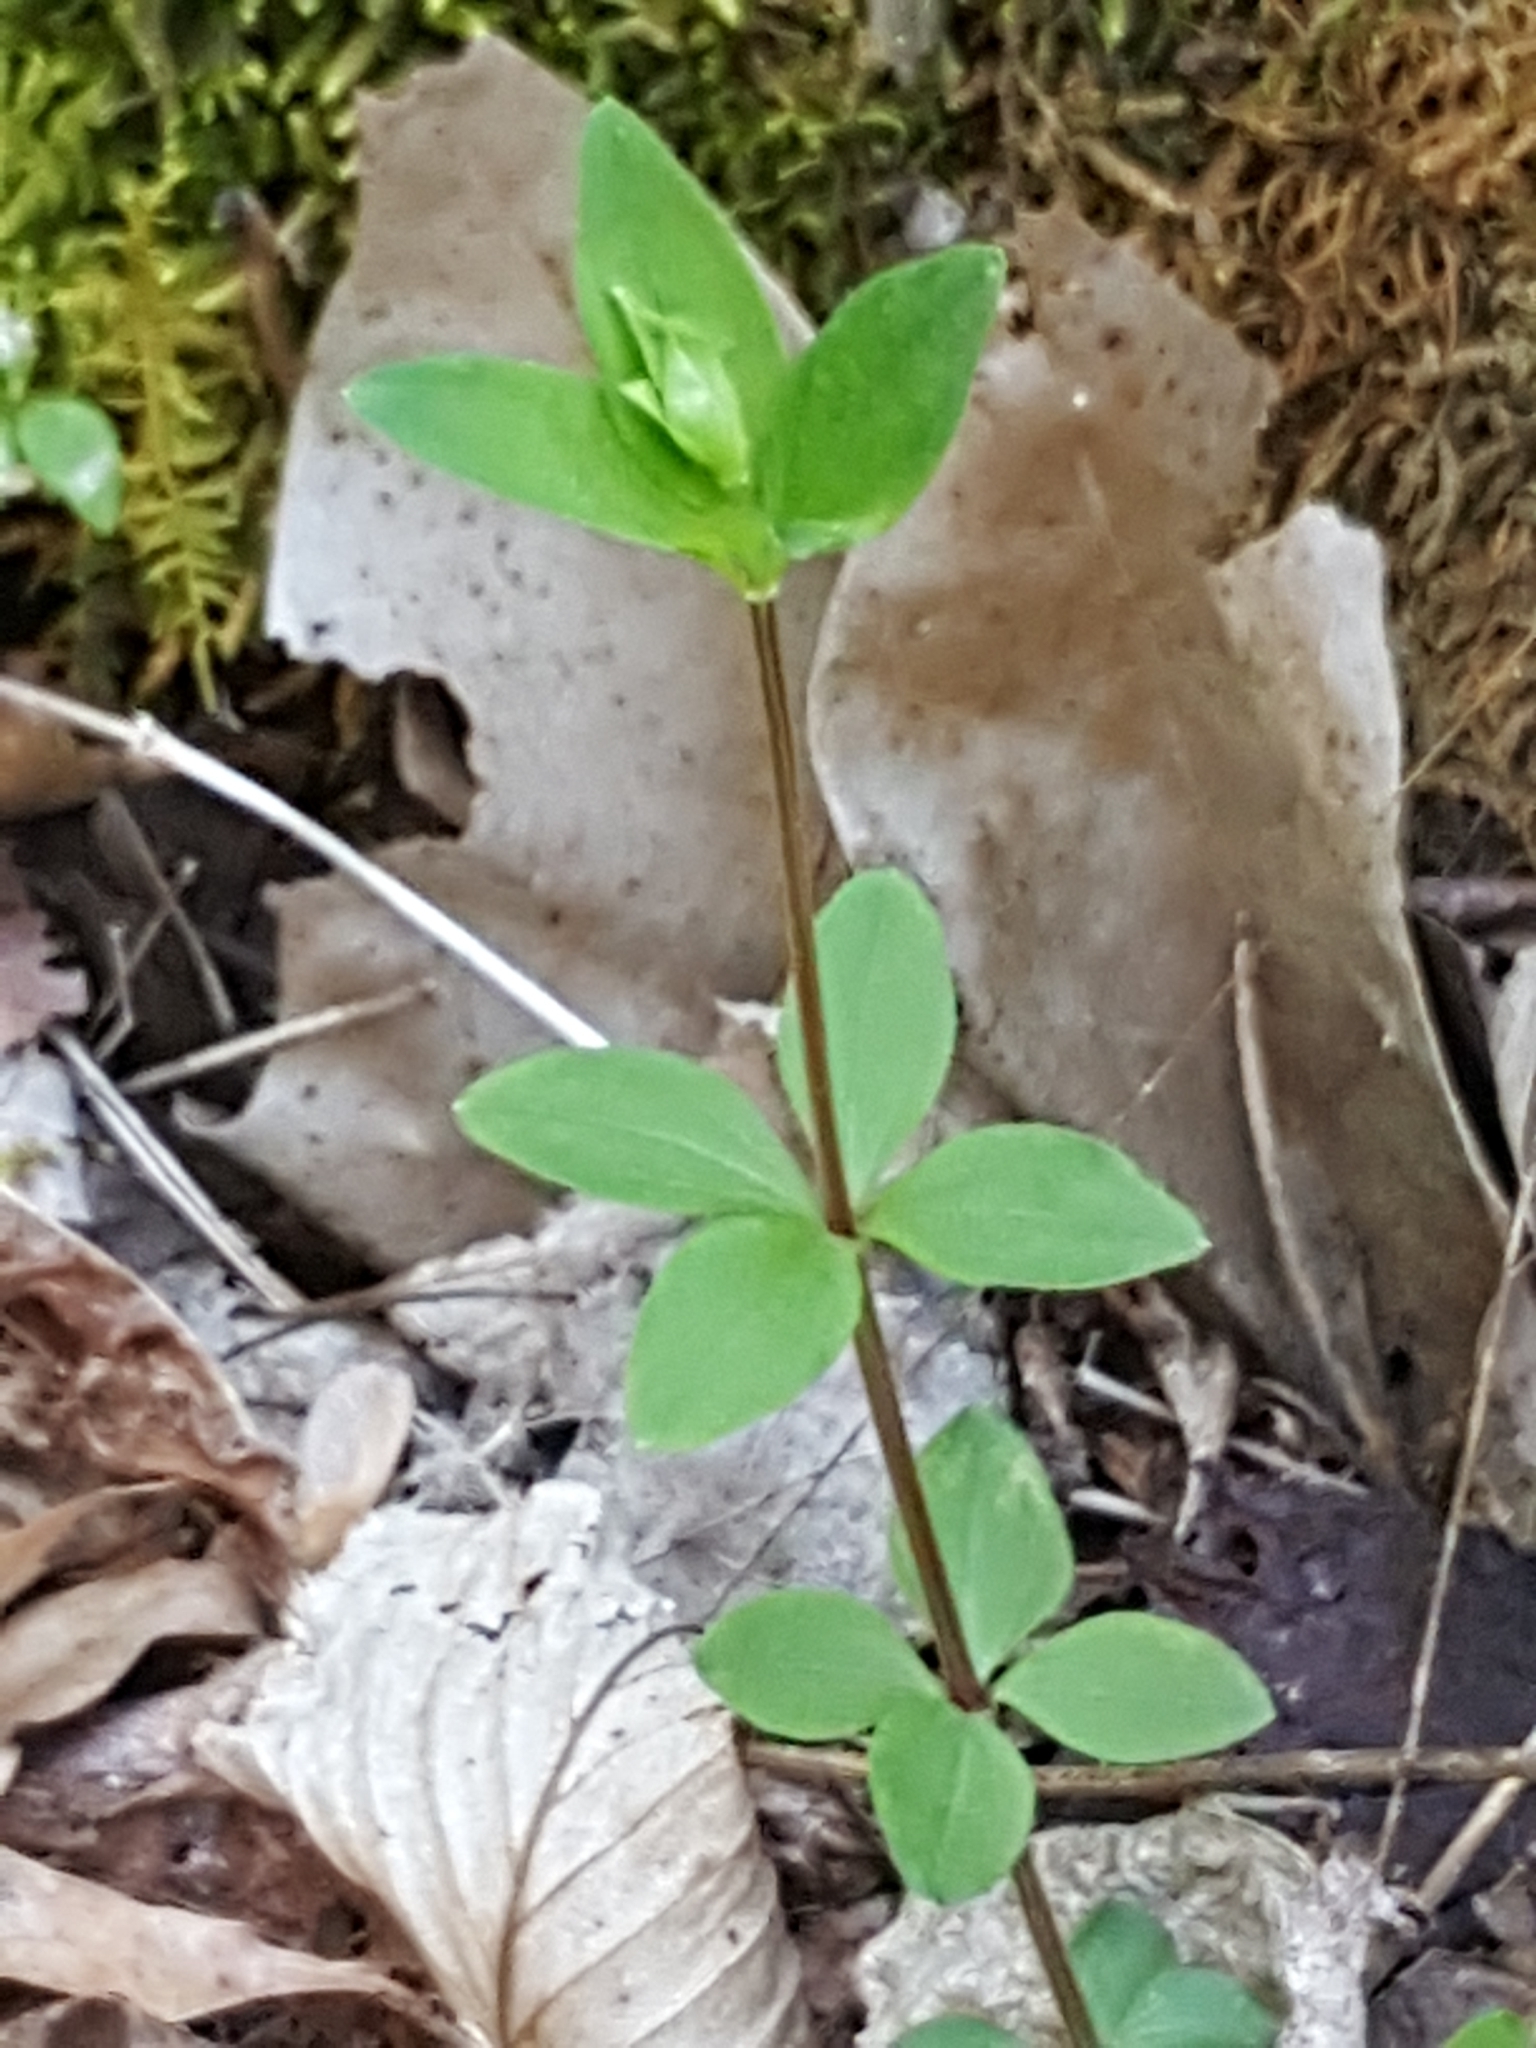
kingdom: Plantae
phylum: Tracheophyta
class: Magnoliopsida
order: Gentianales
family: Rubiaceae
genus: Galium
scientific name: Galium circaezans
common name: Forest bedstraw
